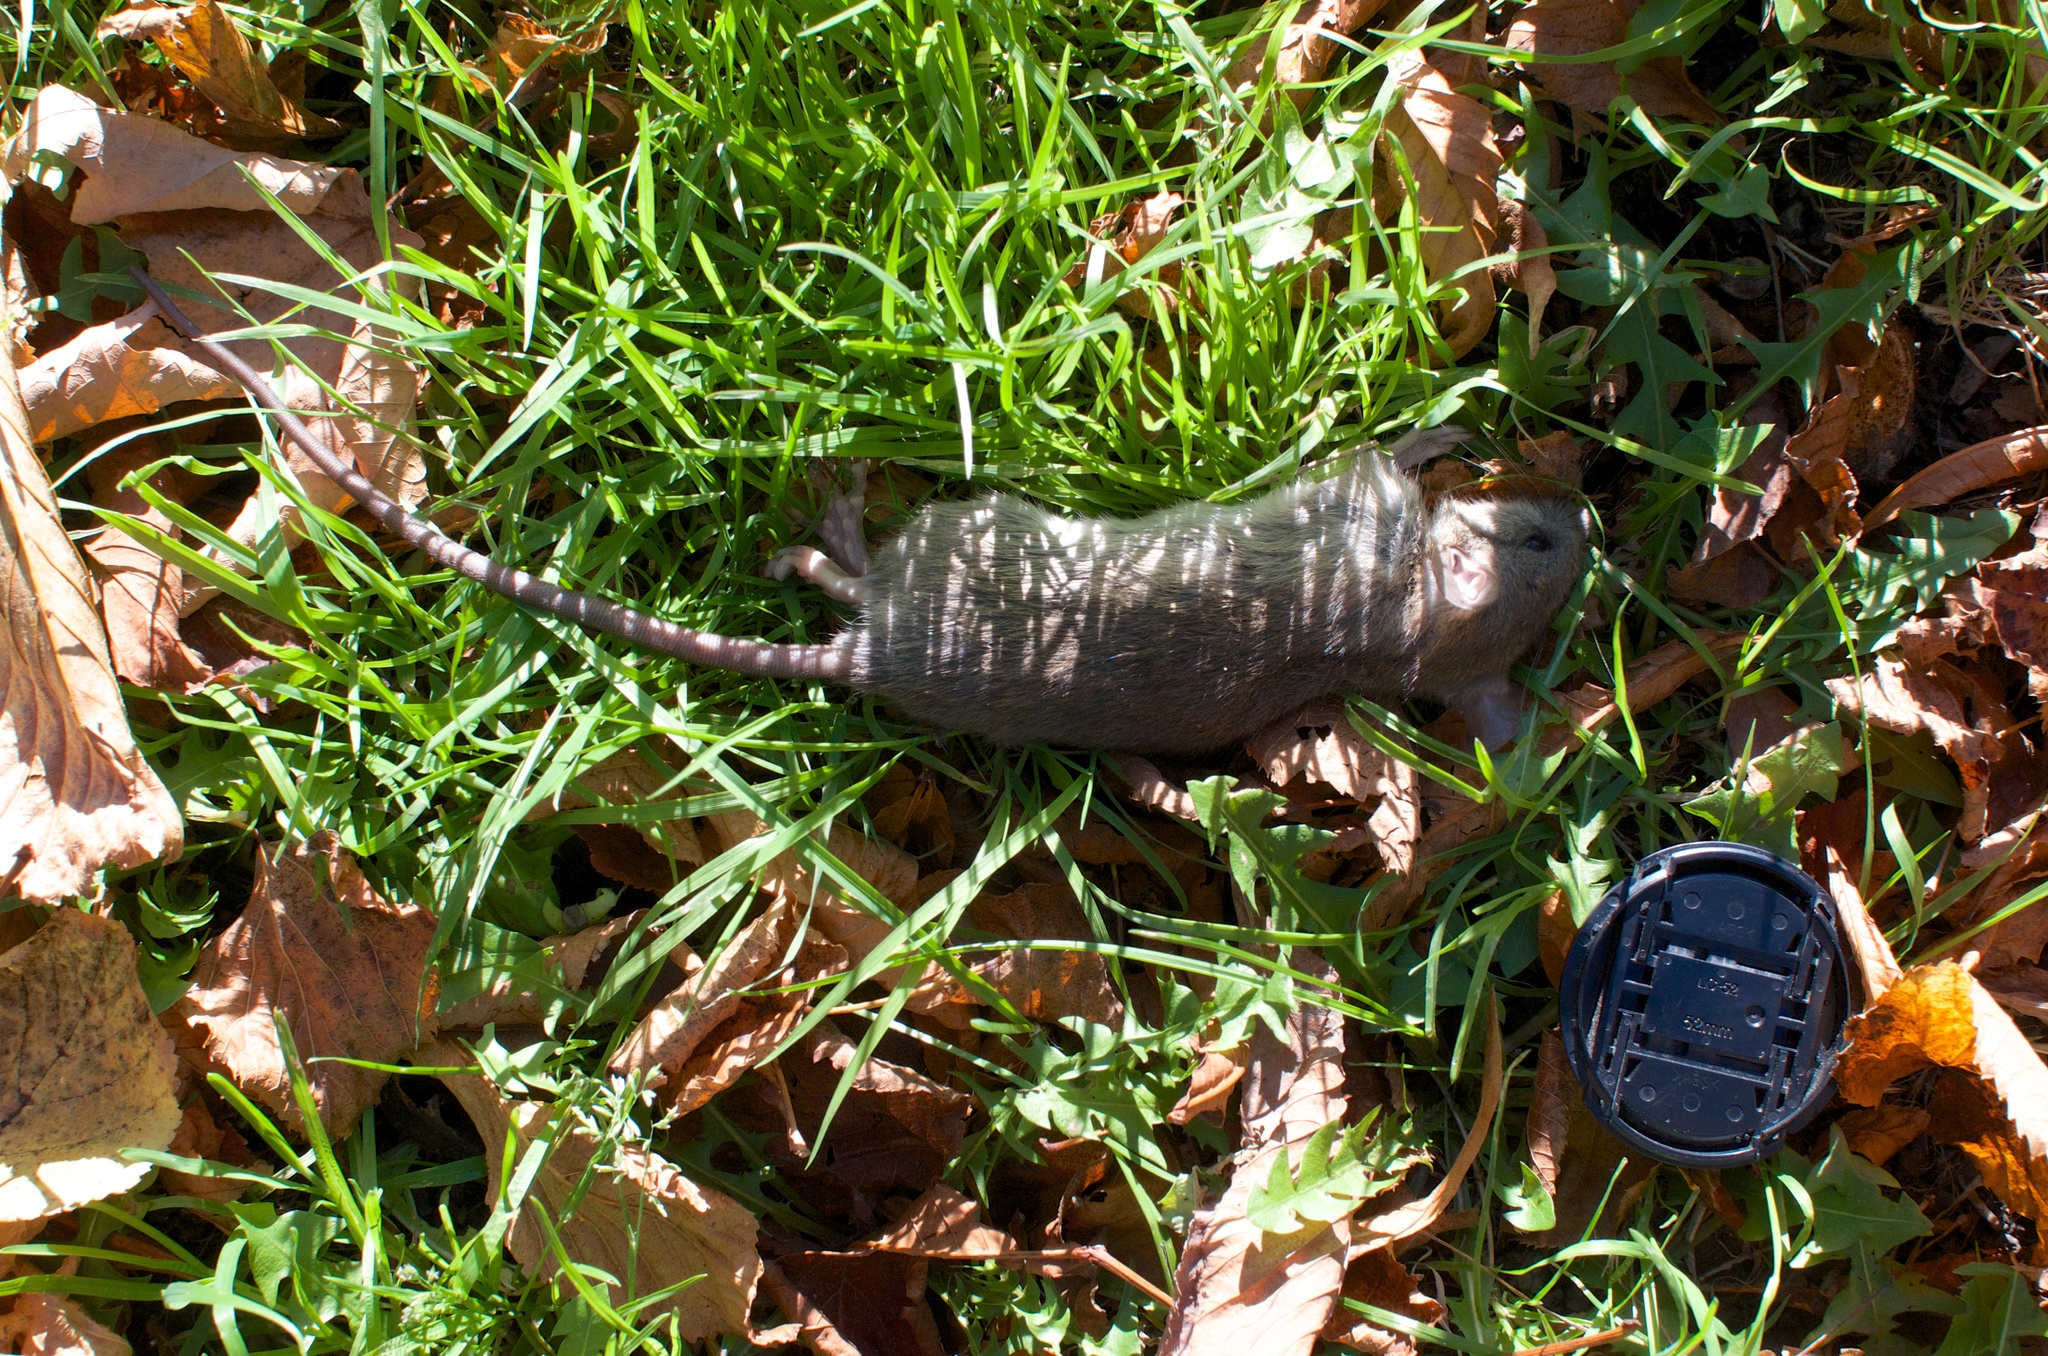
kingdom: Animalia
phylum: Chordata
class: Mammalia
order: Rodentia
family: Muridae
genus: Rattus
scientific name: Rattus rattus
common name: Black rat
